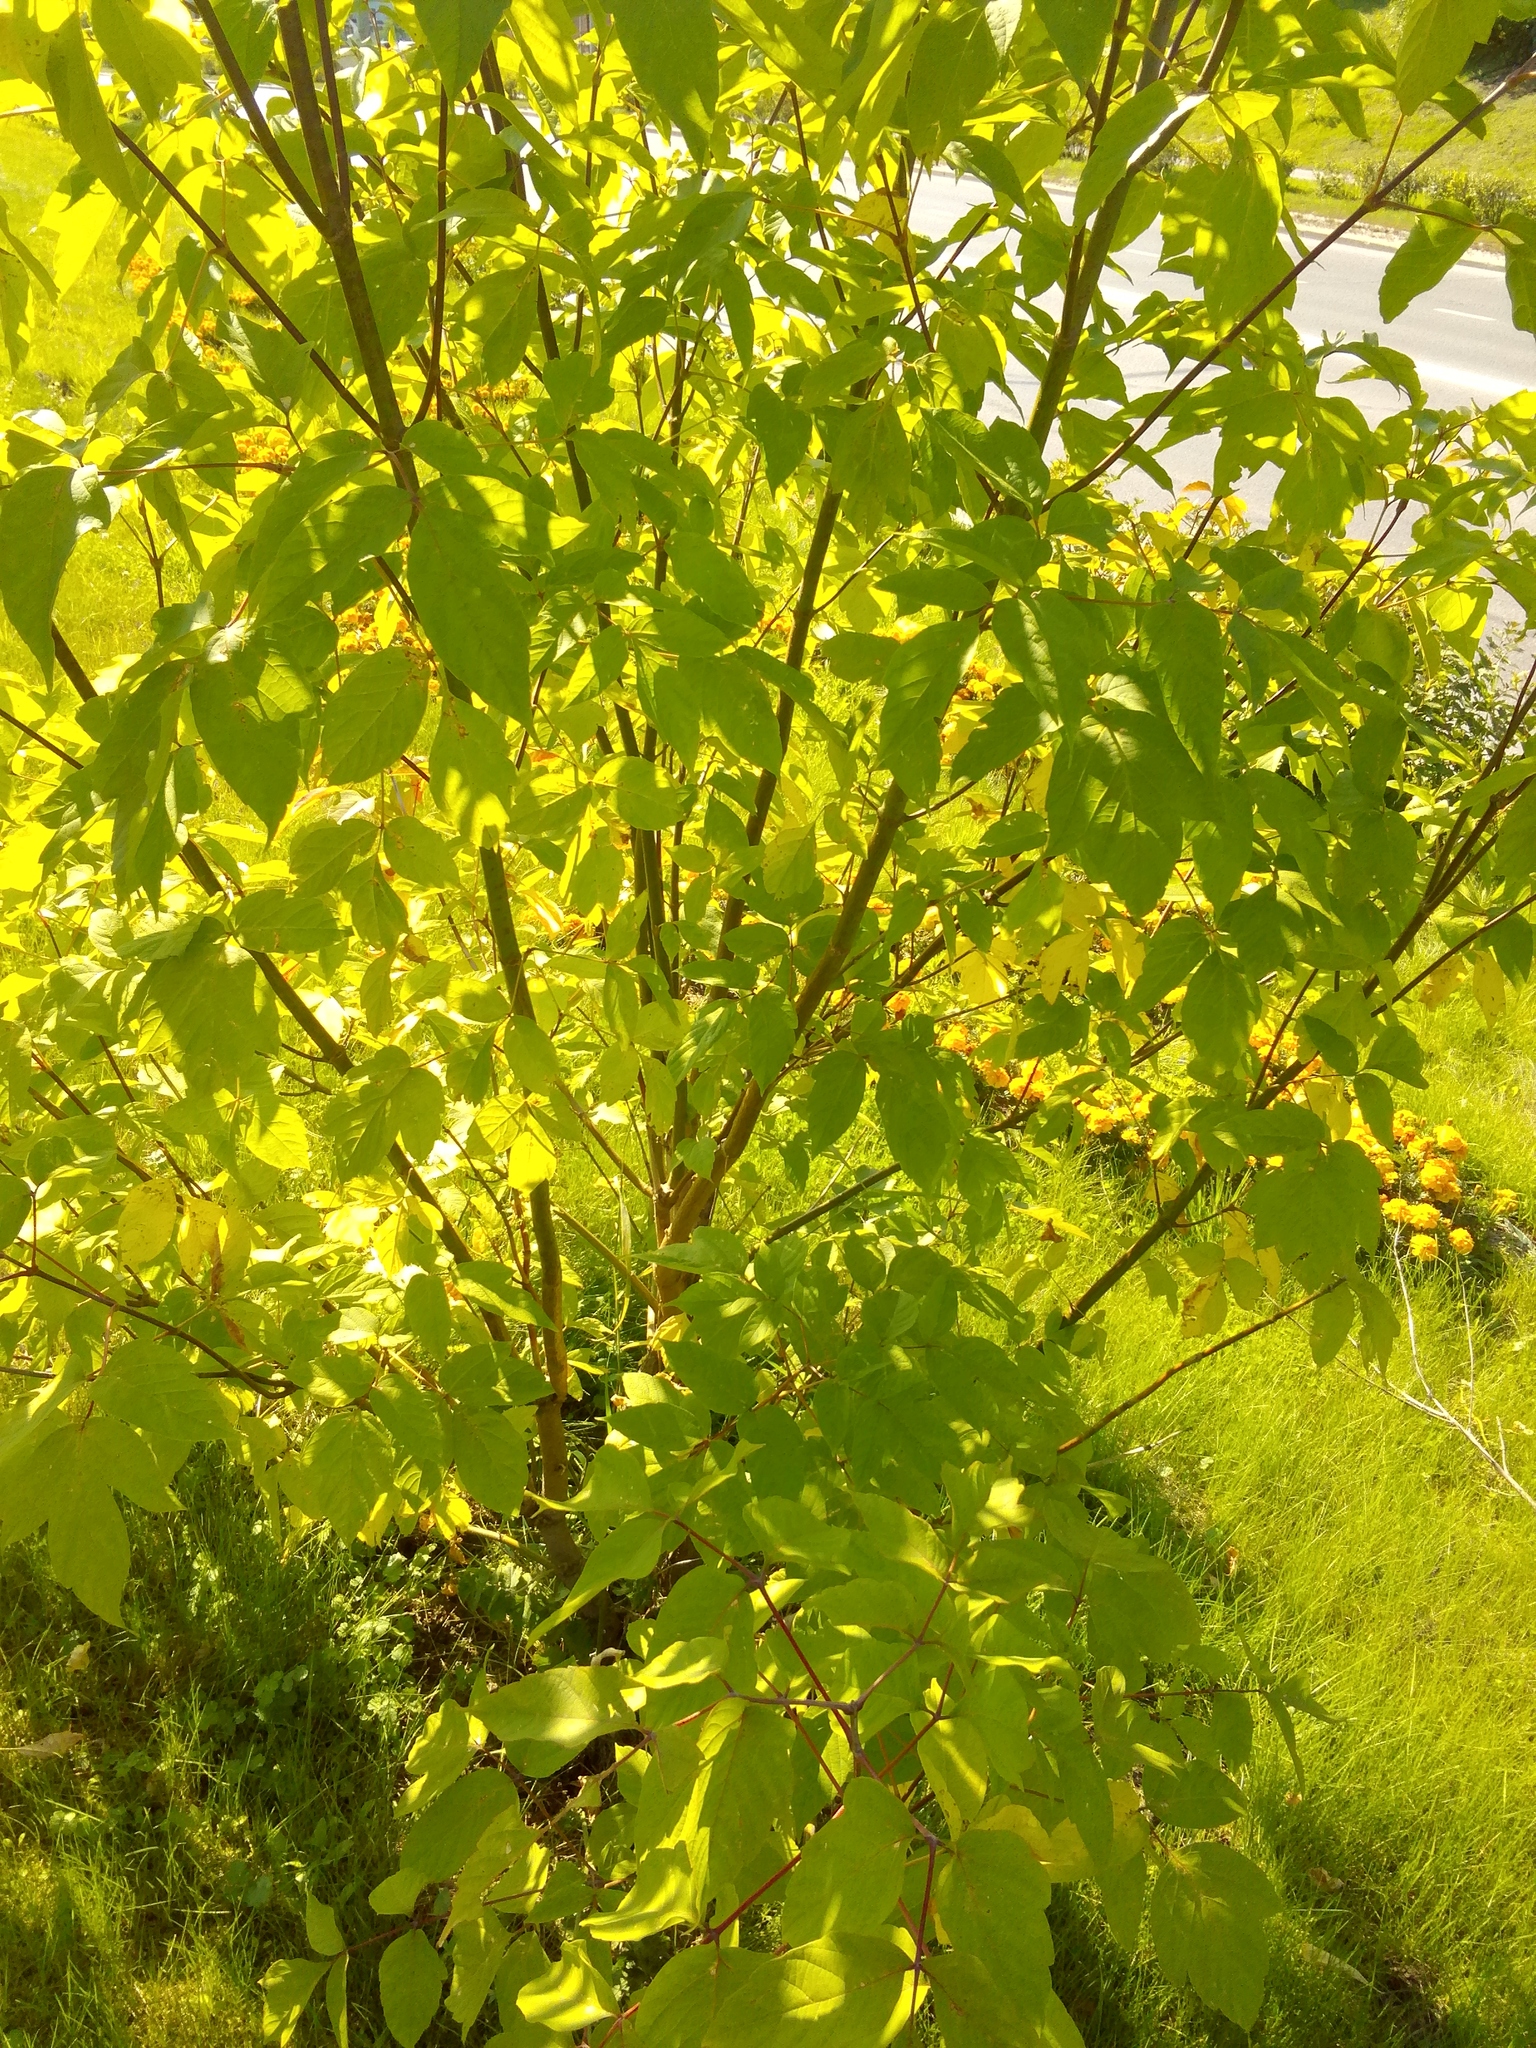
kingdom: Plantae
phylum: Tracheophyta
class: Magnoliopsida
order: Sapindales
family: Sapindaceae
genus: Acer
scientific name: Acer negundo
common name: Ashleaf maple
